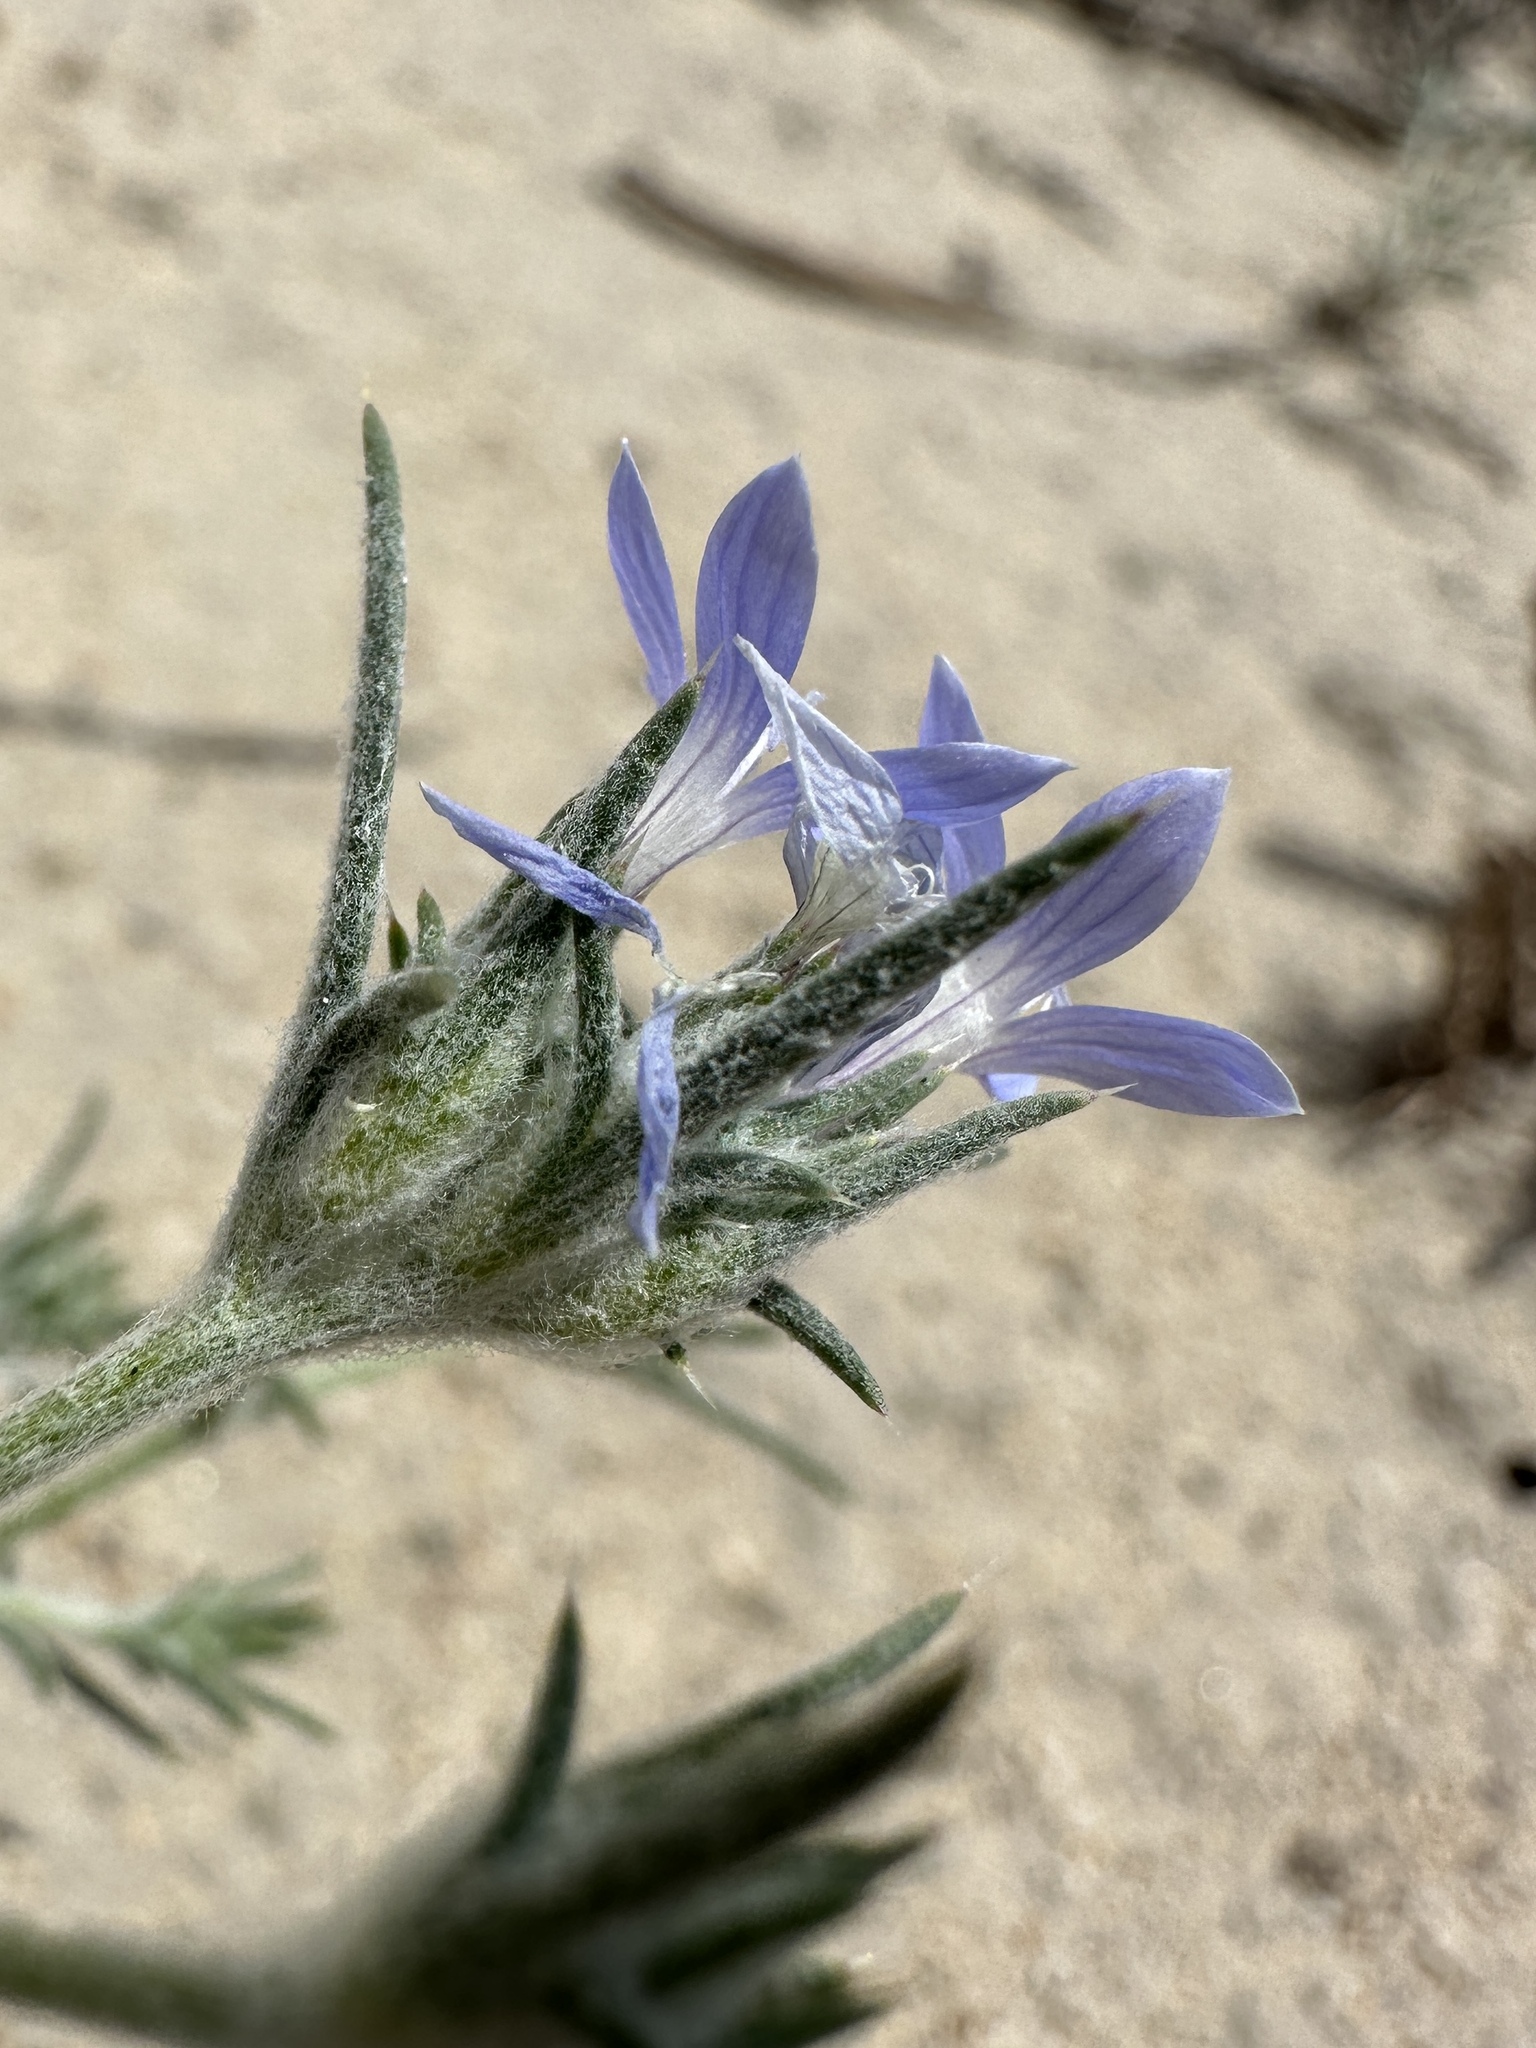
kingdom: Plantae
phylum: Tracheophyta
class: Magnoliopsida
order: Ericales
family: Polemoniaceae
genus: Eriastrum
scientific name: Eriastrum wilcoxii
